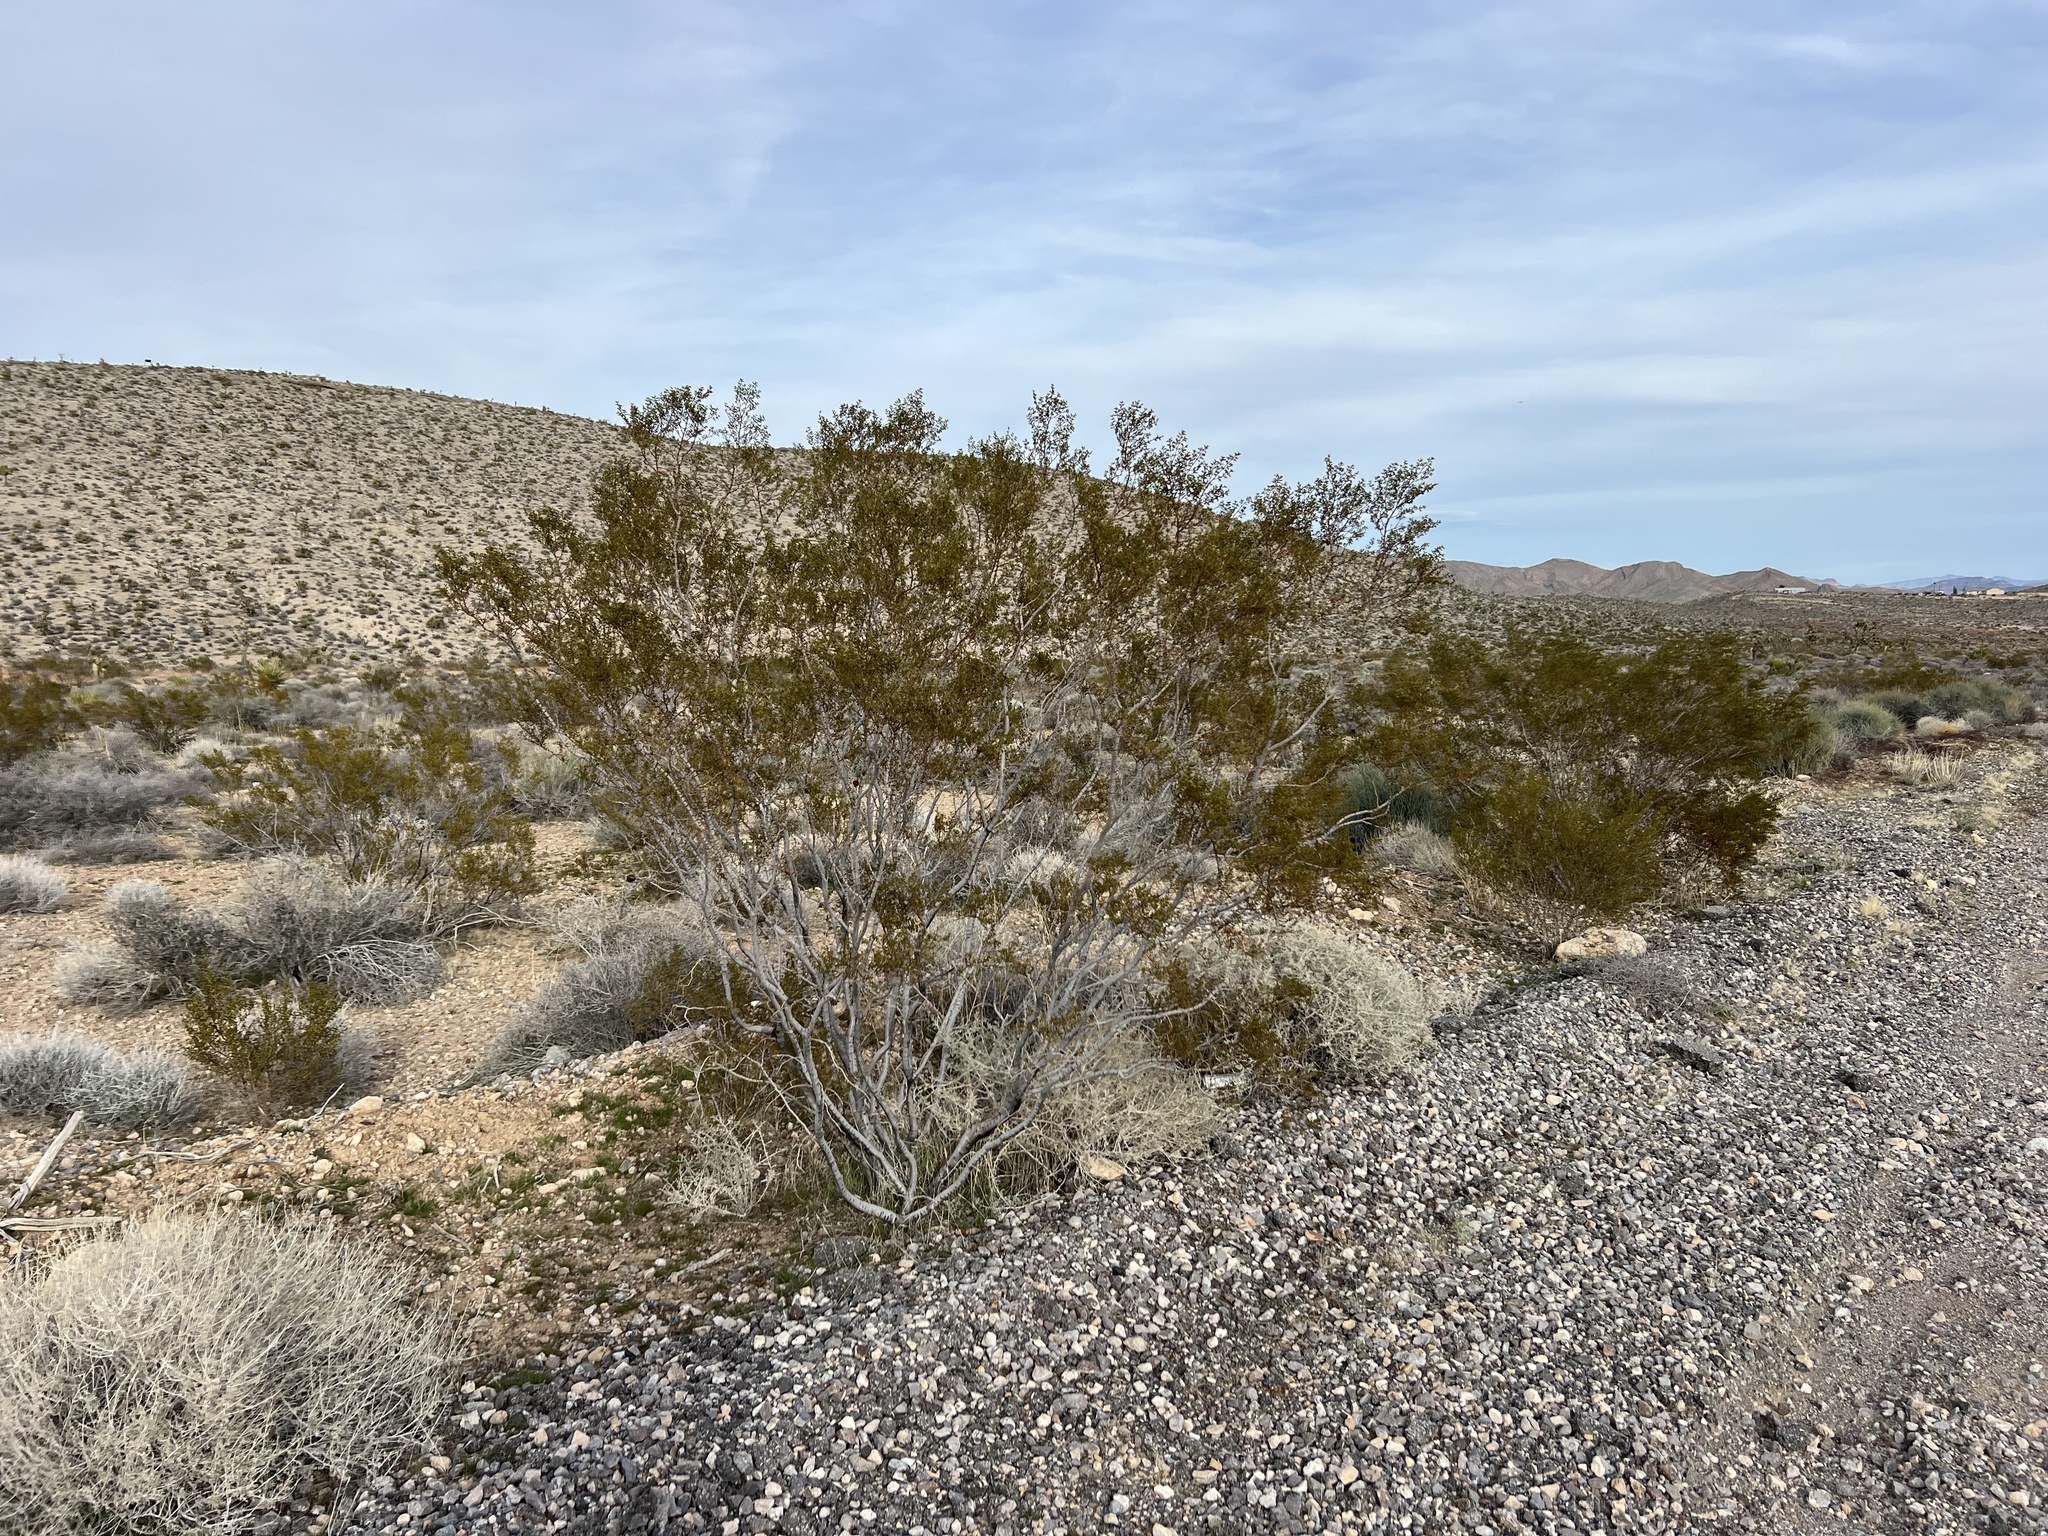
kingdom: Plantae
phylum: Tracheophyta
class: Magnoliopsida
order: Zygophyllales
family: Zygophyllaceae
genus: Larrea
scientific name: Larrea tridentata
